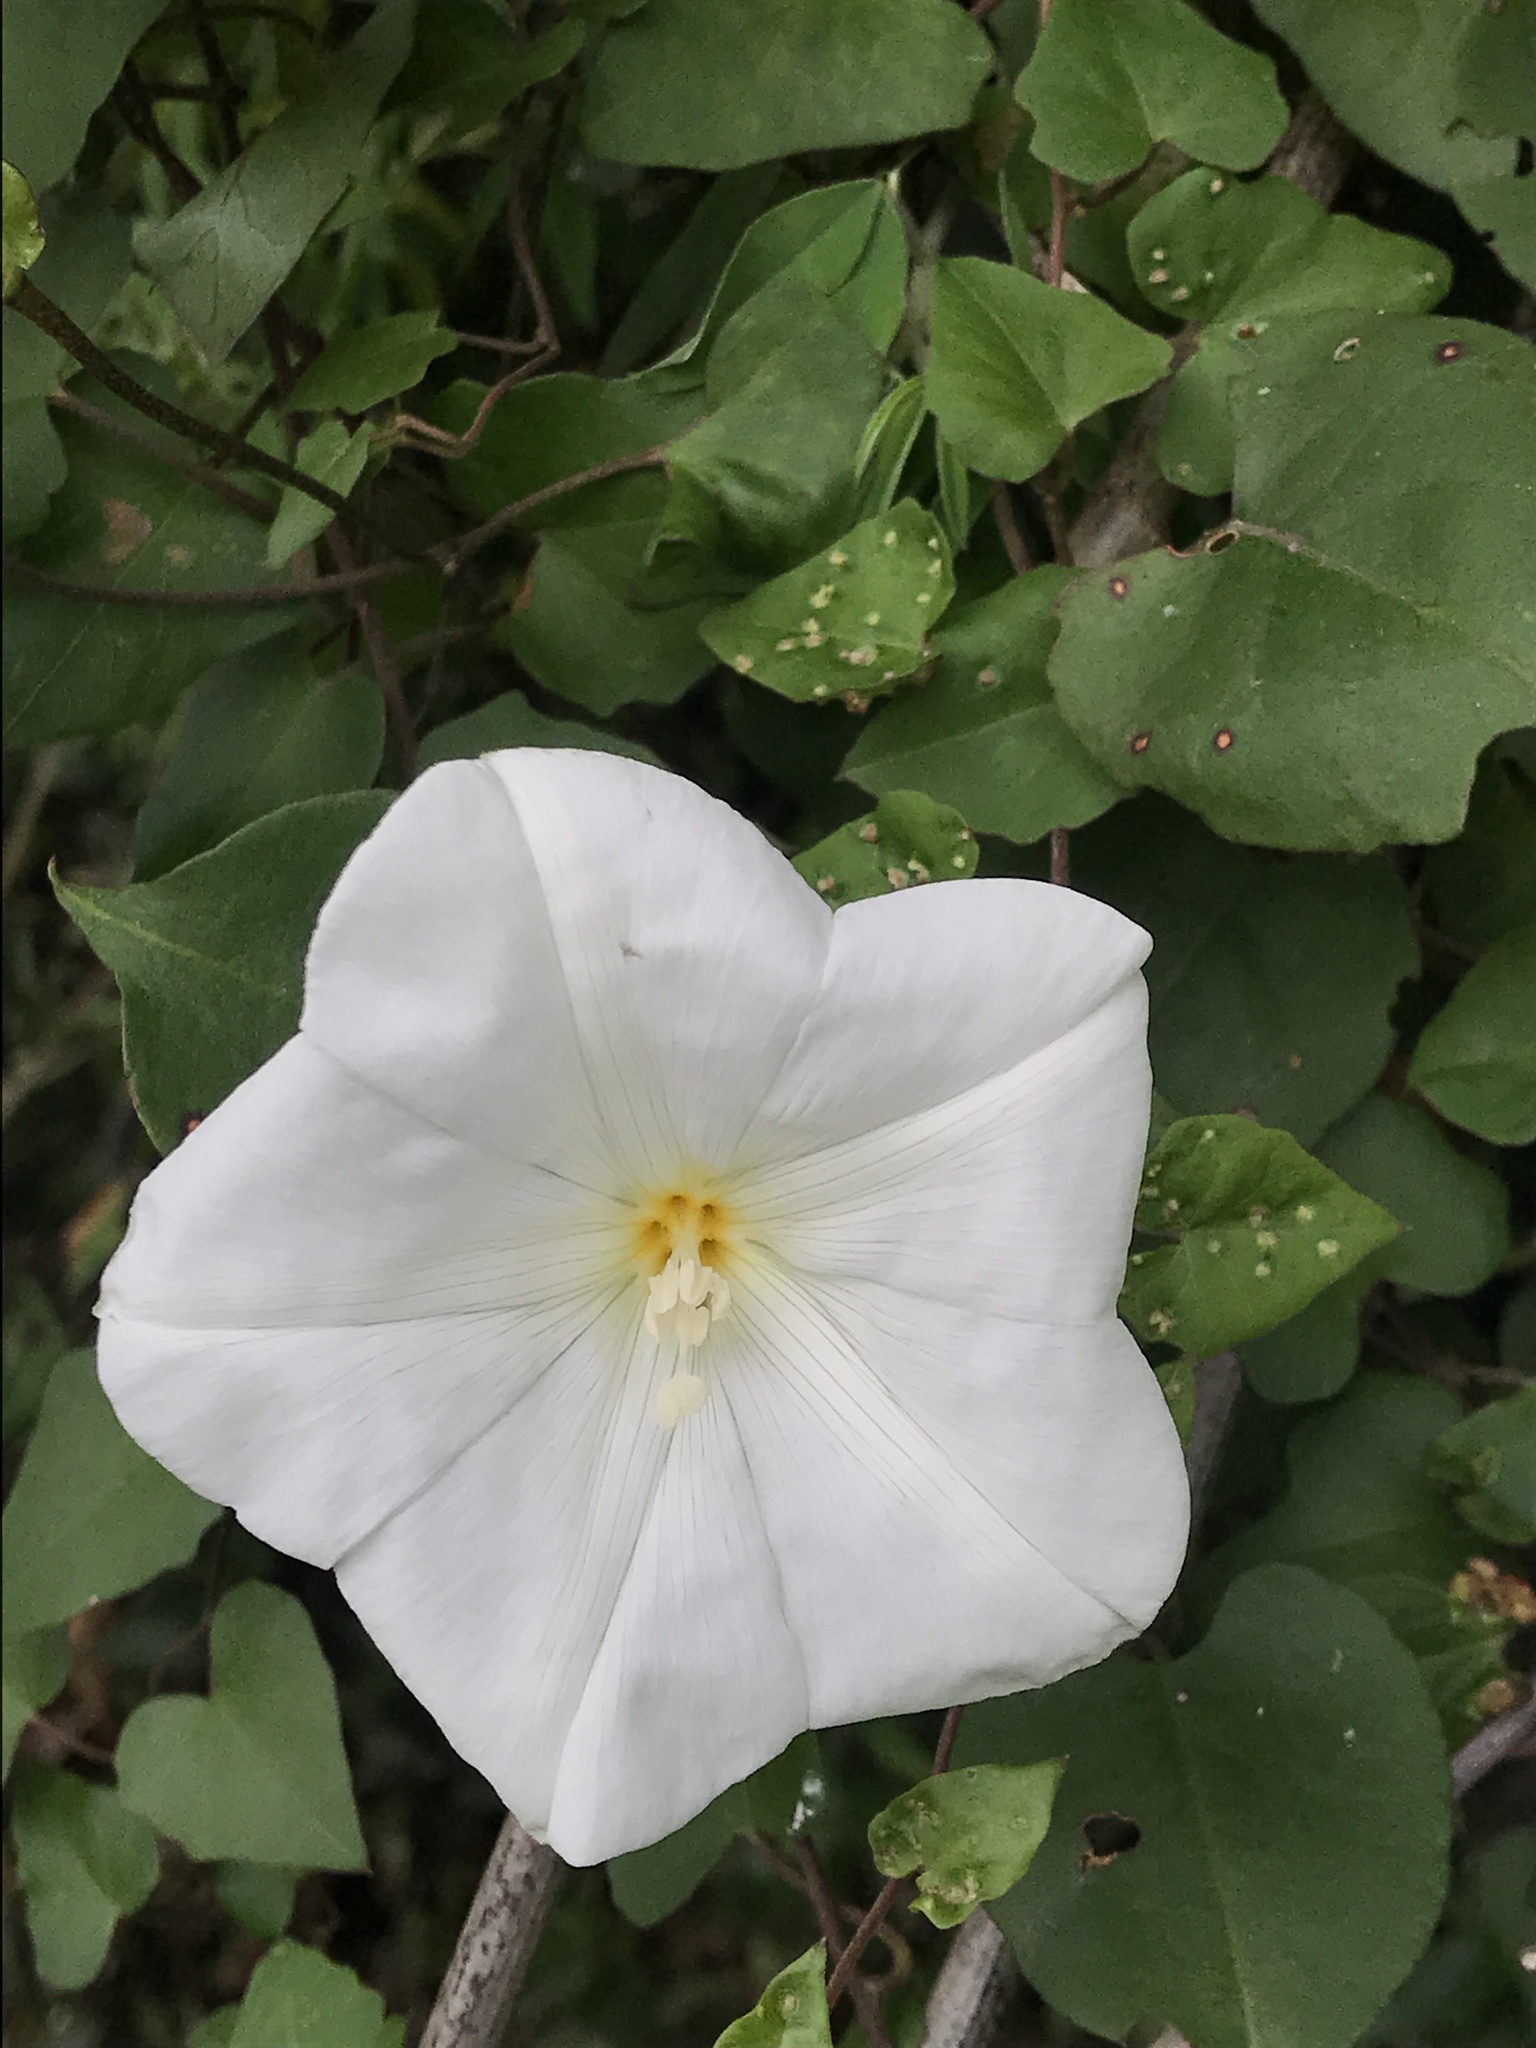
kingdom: Plantae
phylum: Tracheophyta
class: Magnoliopsida
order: Solanales
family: Convolvulaceae
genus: Calystegia
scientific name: Calystegia tuguriorum
